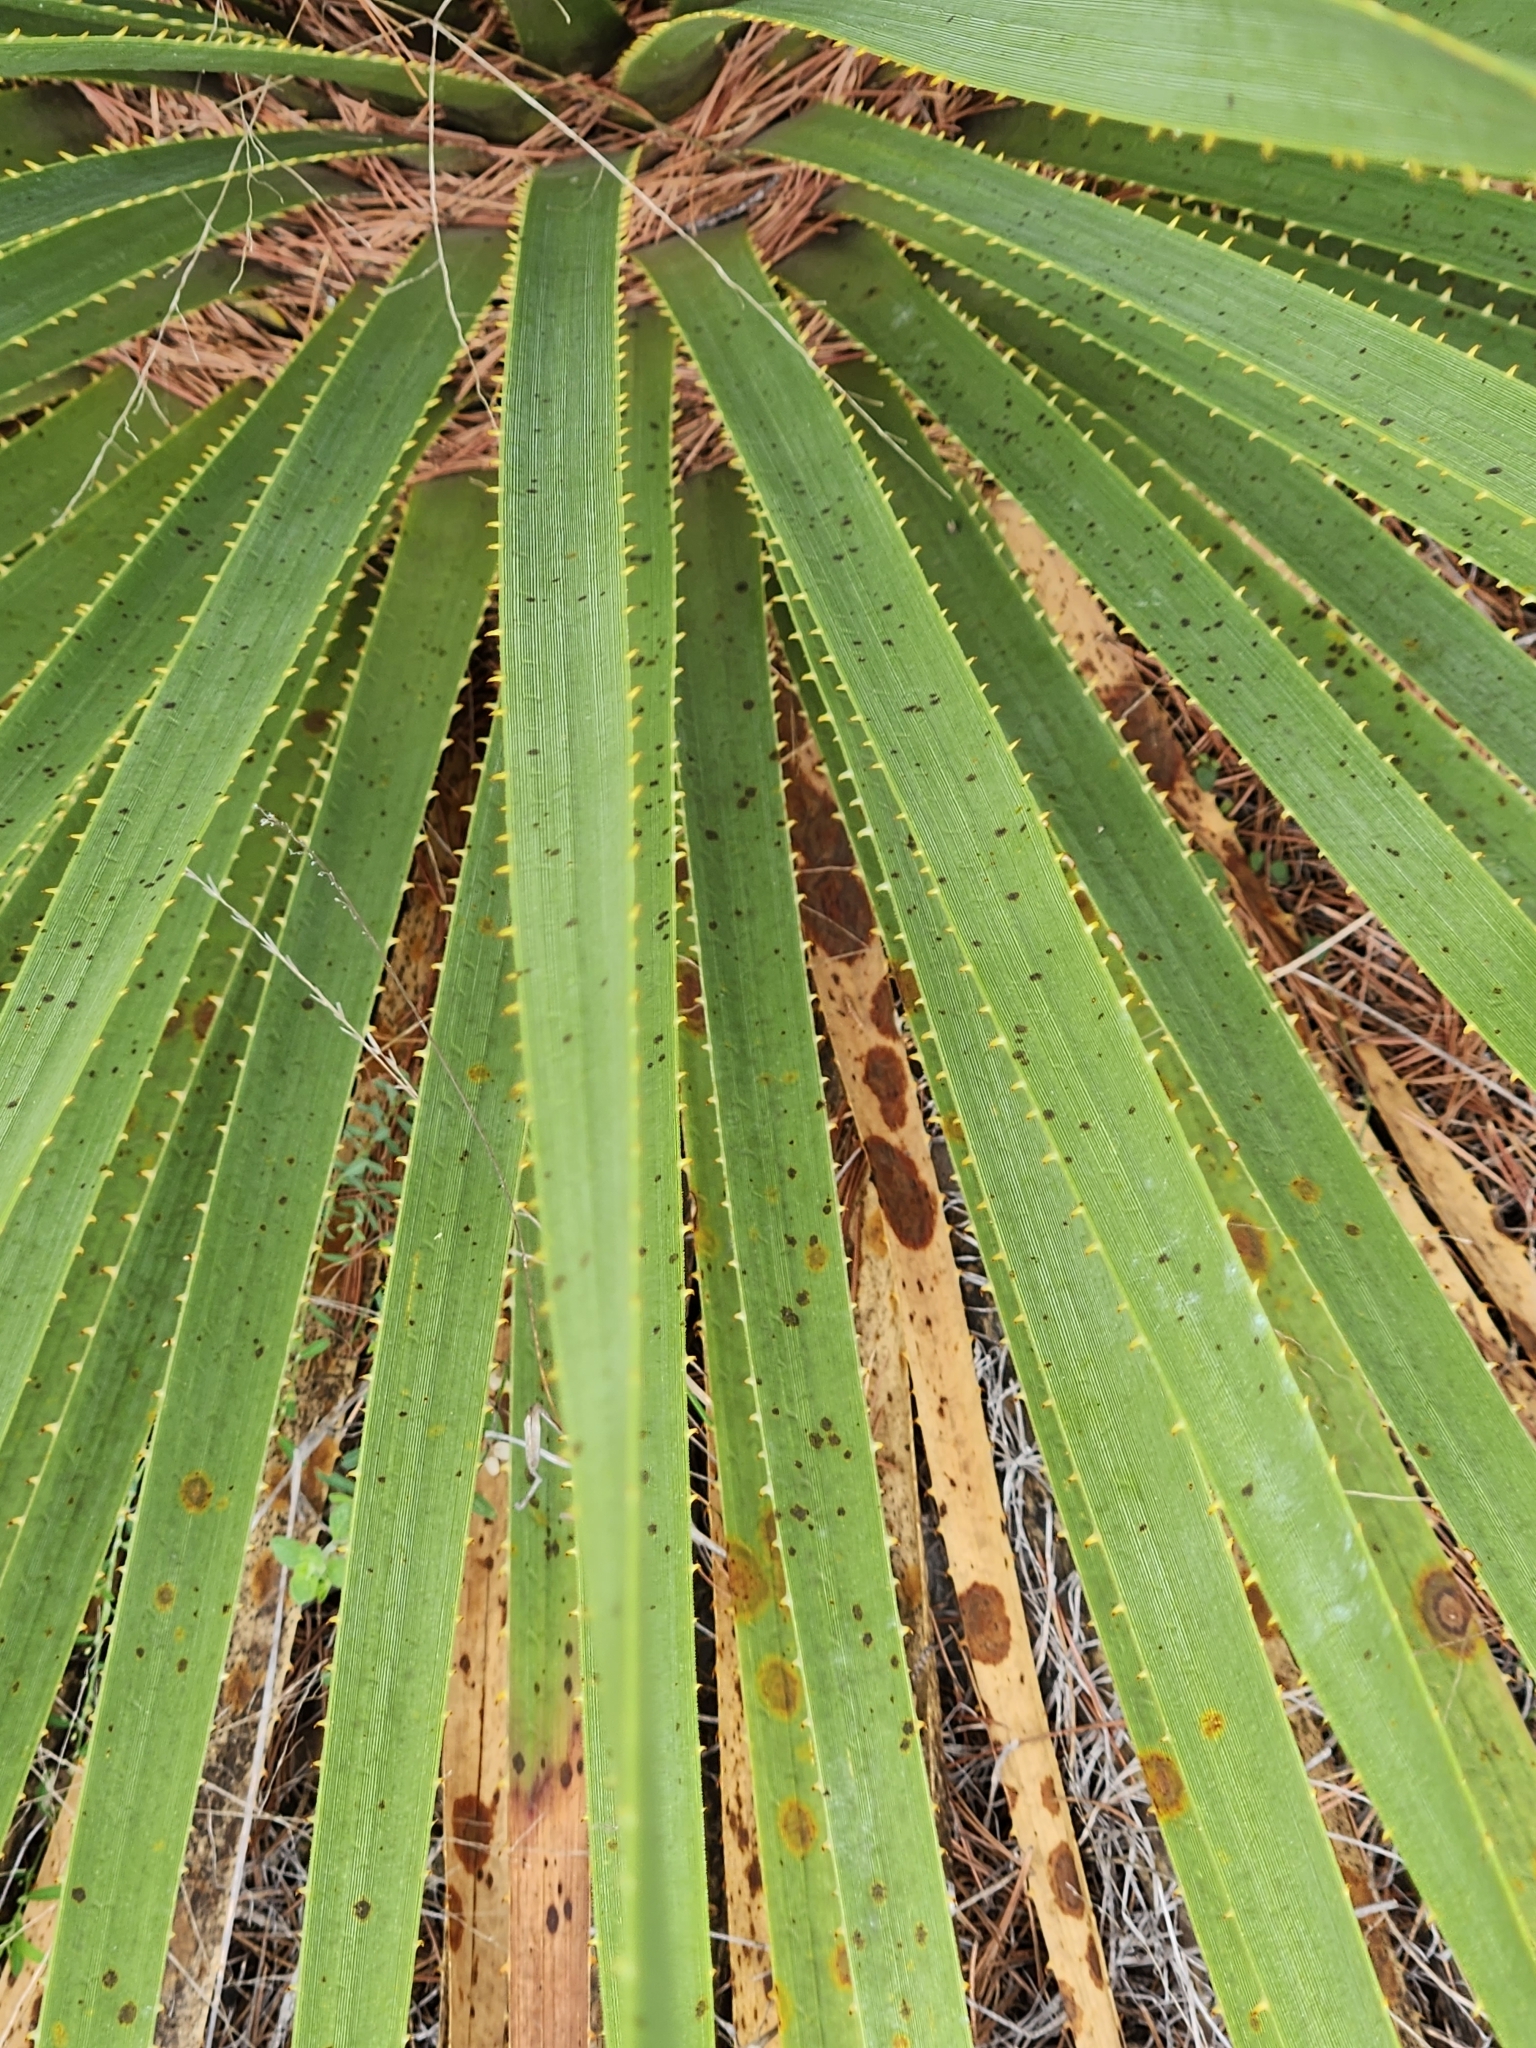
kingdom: Plantae
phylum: Tracheophyta
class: Liliopsida
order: Asparagales
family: Asparagaceae
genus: Dasylirion
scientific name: Dasylirion texanum
